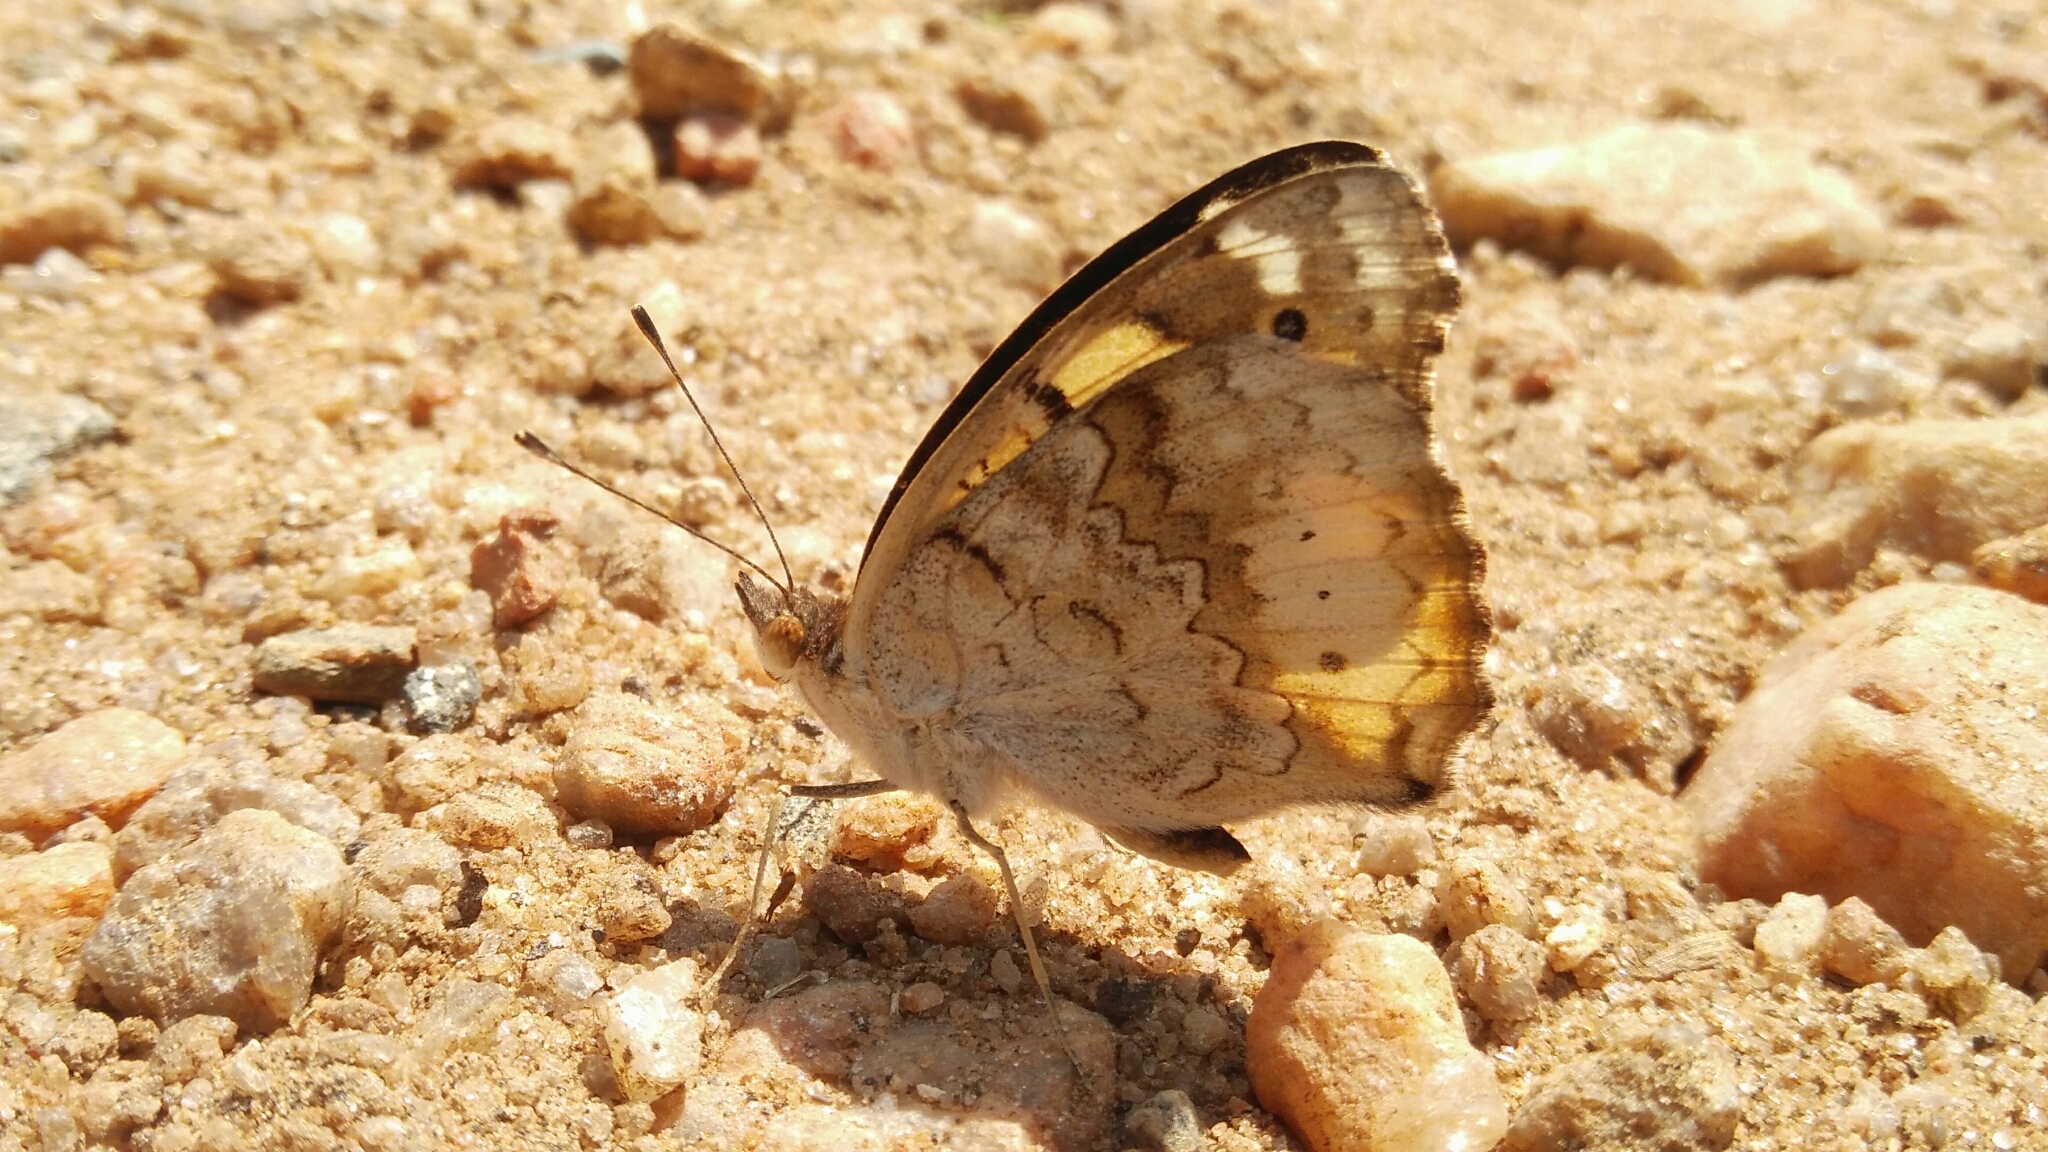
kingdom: Animalia
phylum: Arthropoda
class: Insecta
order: Lepidoptera
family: Nymphalidae
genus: Junonia
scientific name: Junonia hierta
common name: Yellow pansy
